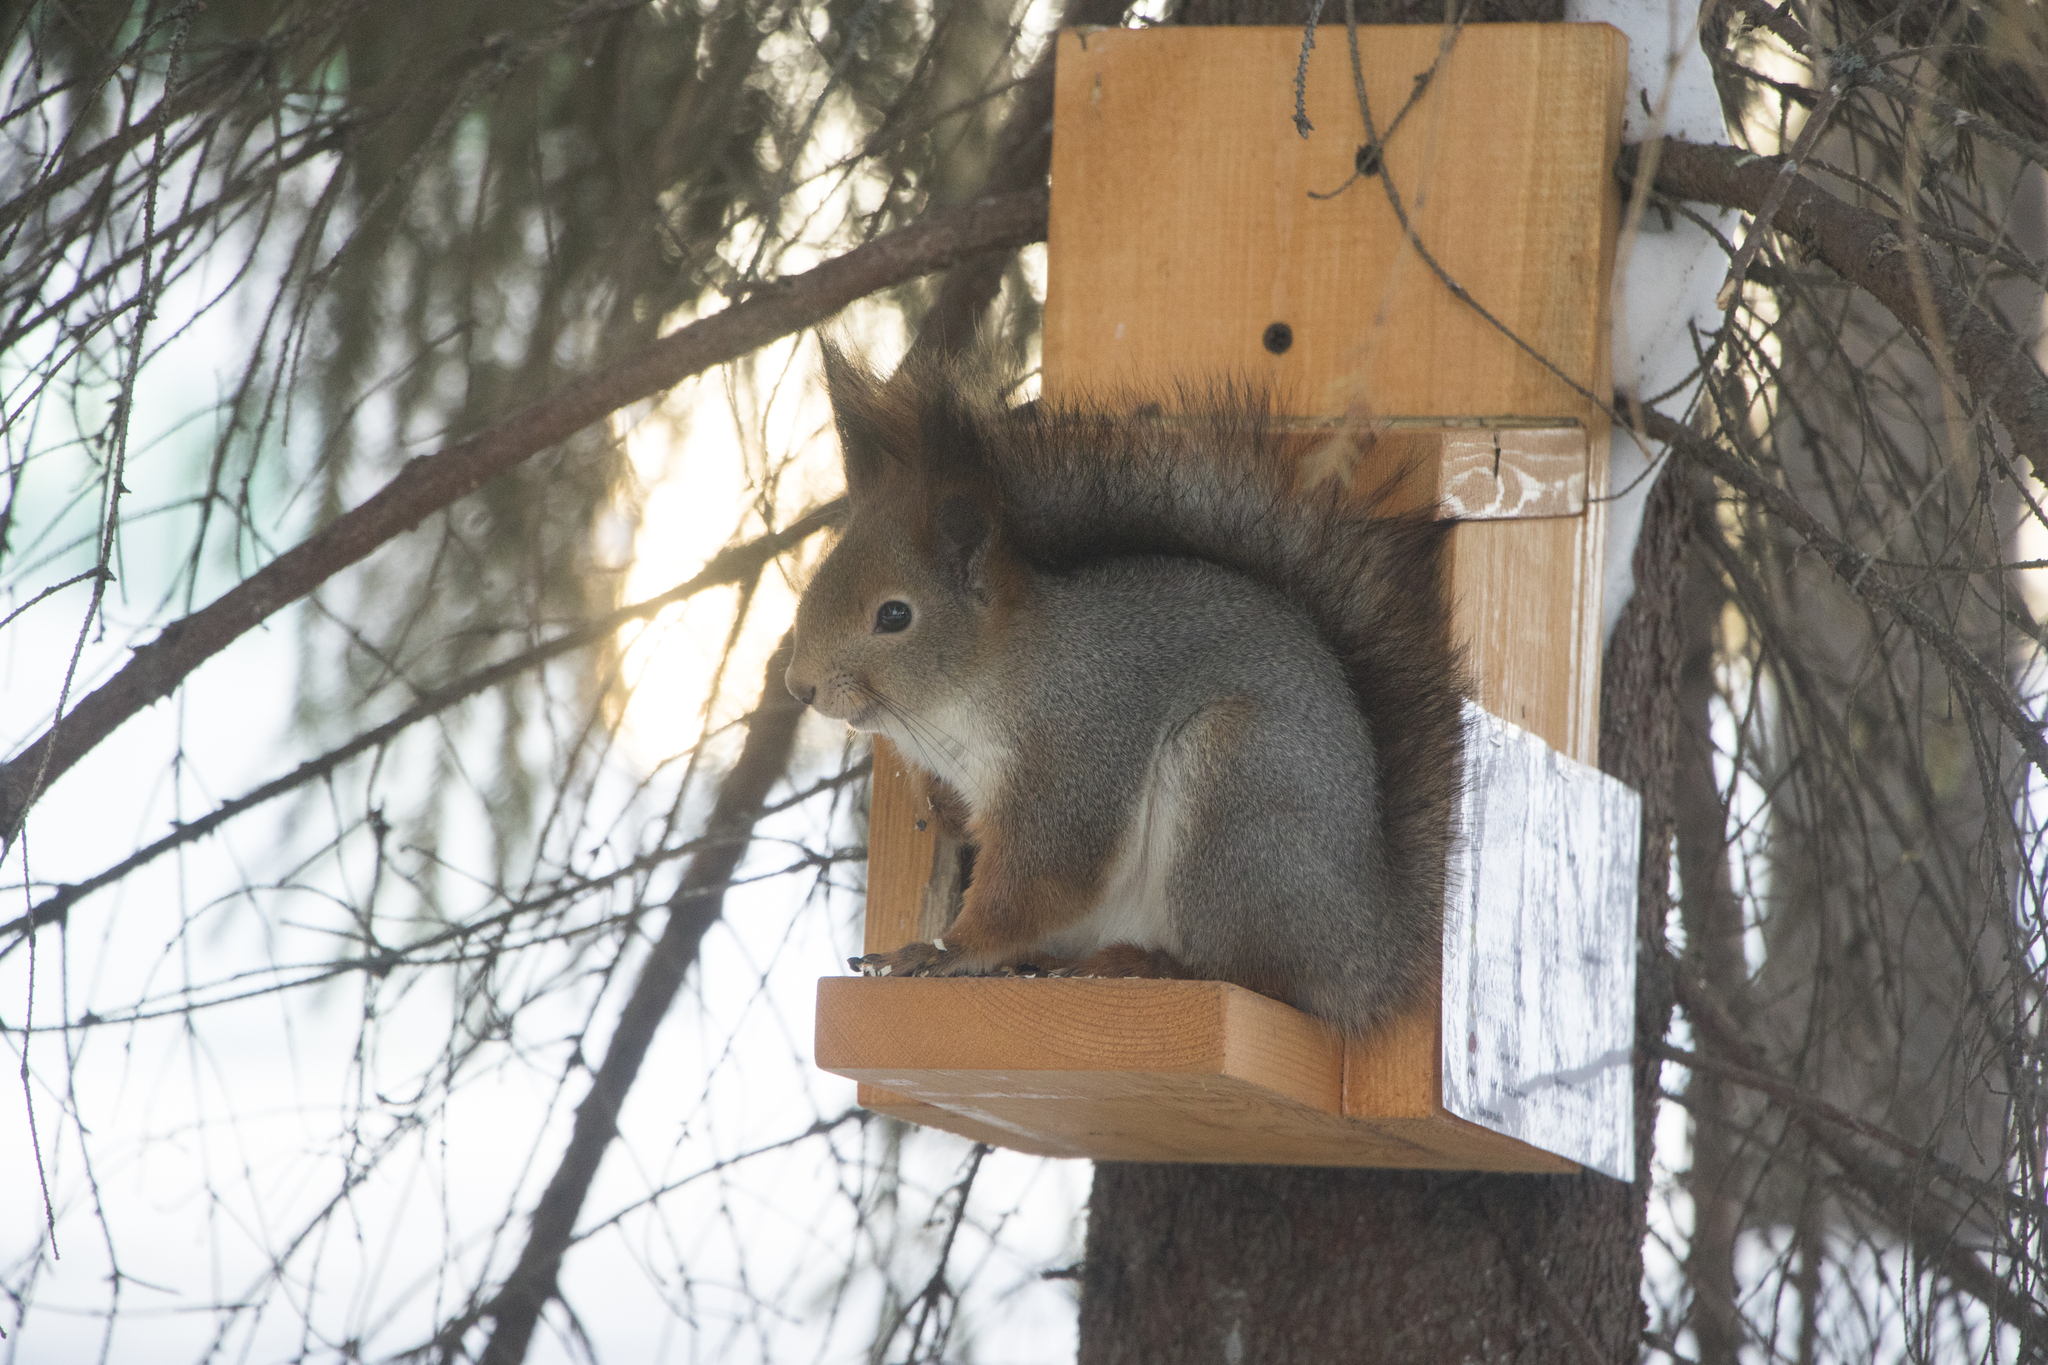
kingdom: Animalia
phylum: Chordata
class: Mammalia
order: Rodentia
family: Sciuridae
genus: Sciurus
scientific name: Sciurus vulgaris
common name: Eurasian red squirrel
